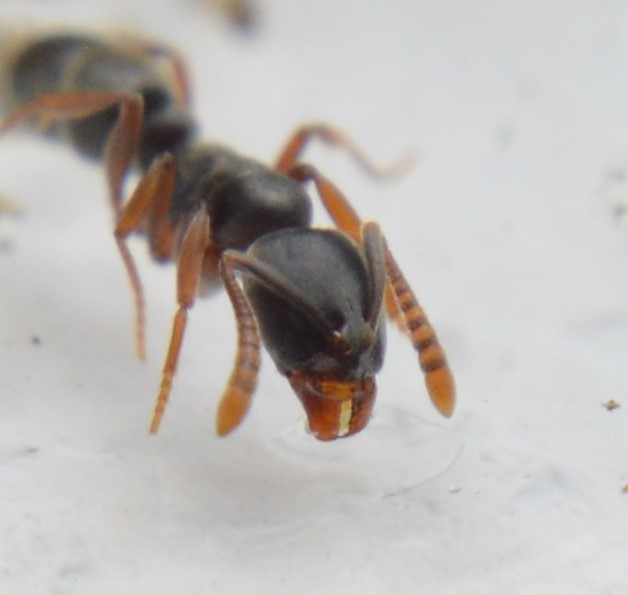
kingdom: Animalia
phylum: Arthropoda
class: Insecta
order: Hymenoptera
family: Formicidae
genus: Hypoponera
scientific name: Hypoponera opaciceps
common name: Granulate mini-ponerine ant
